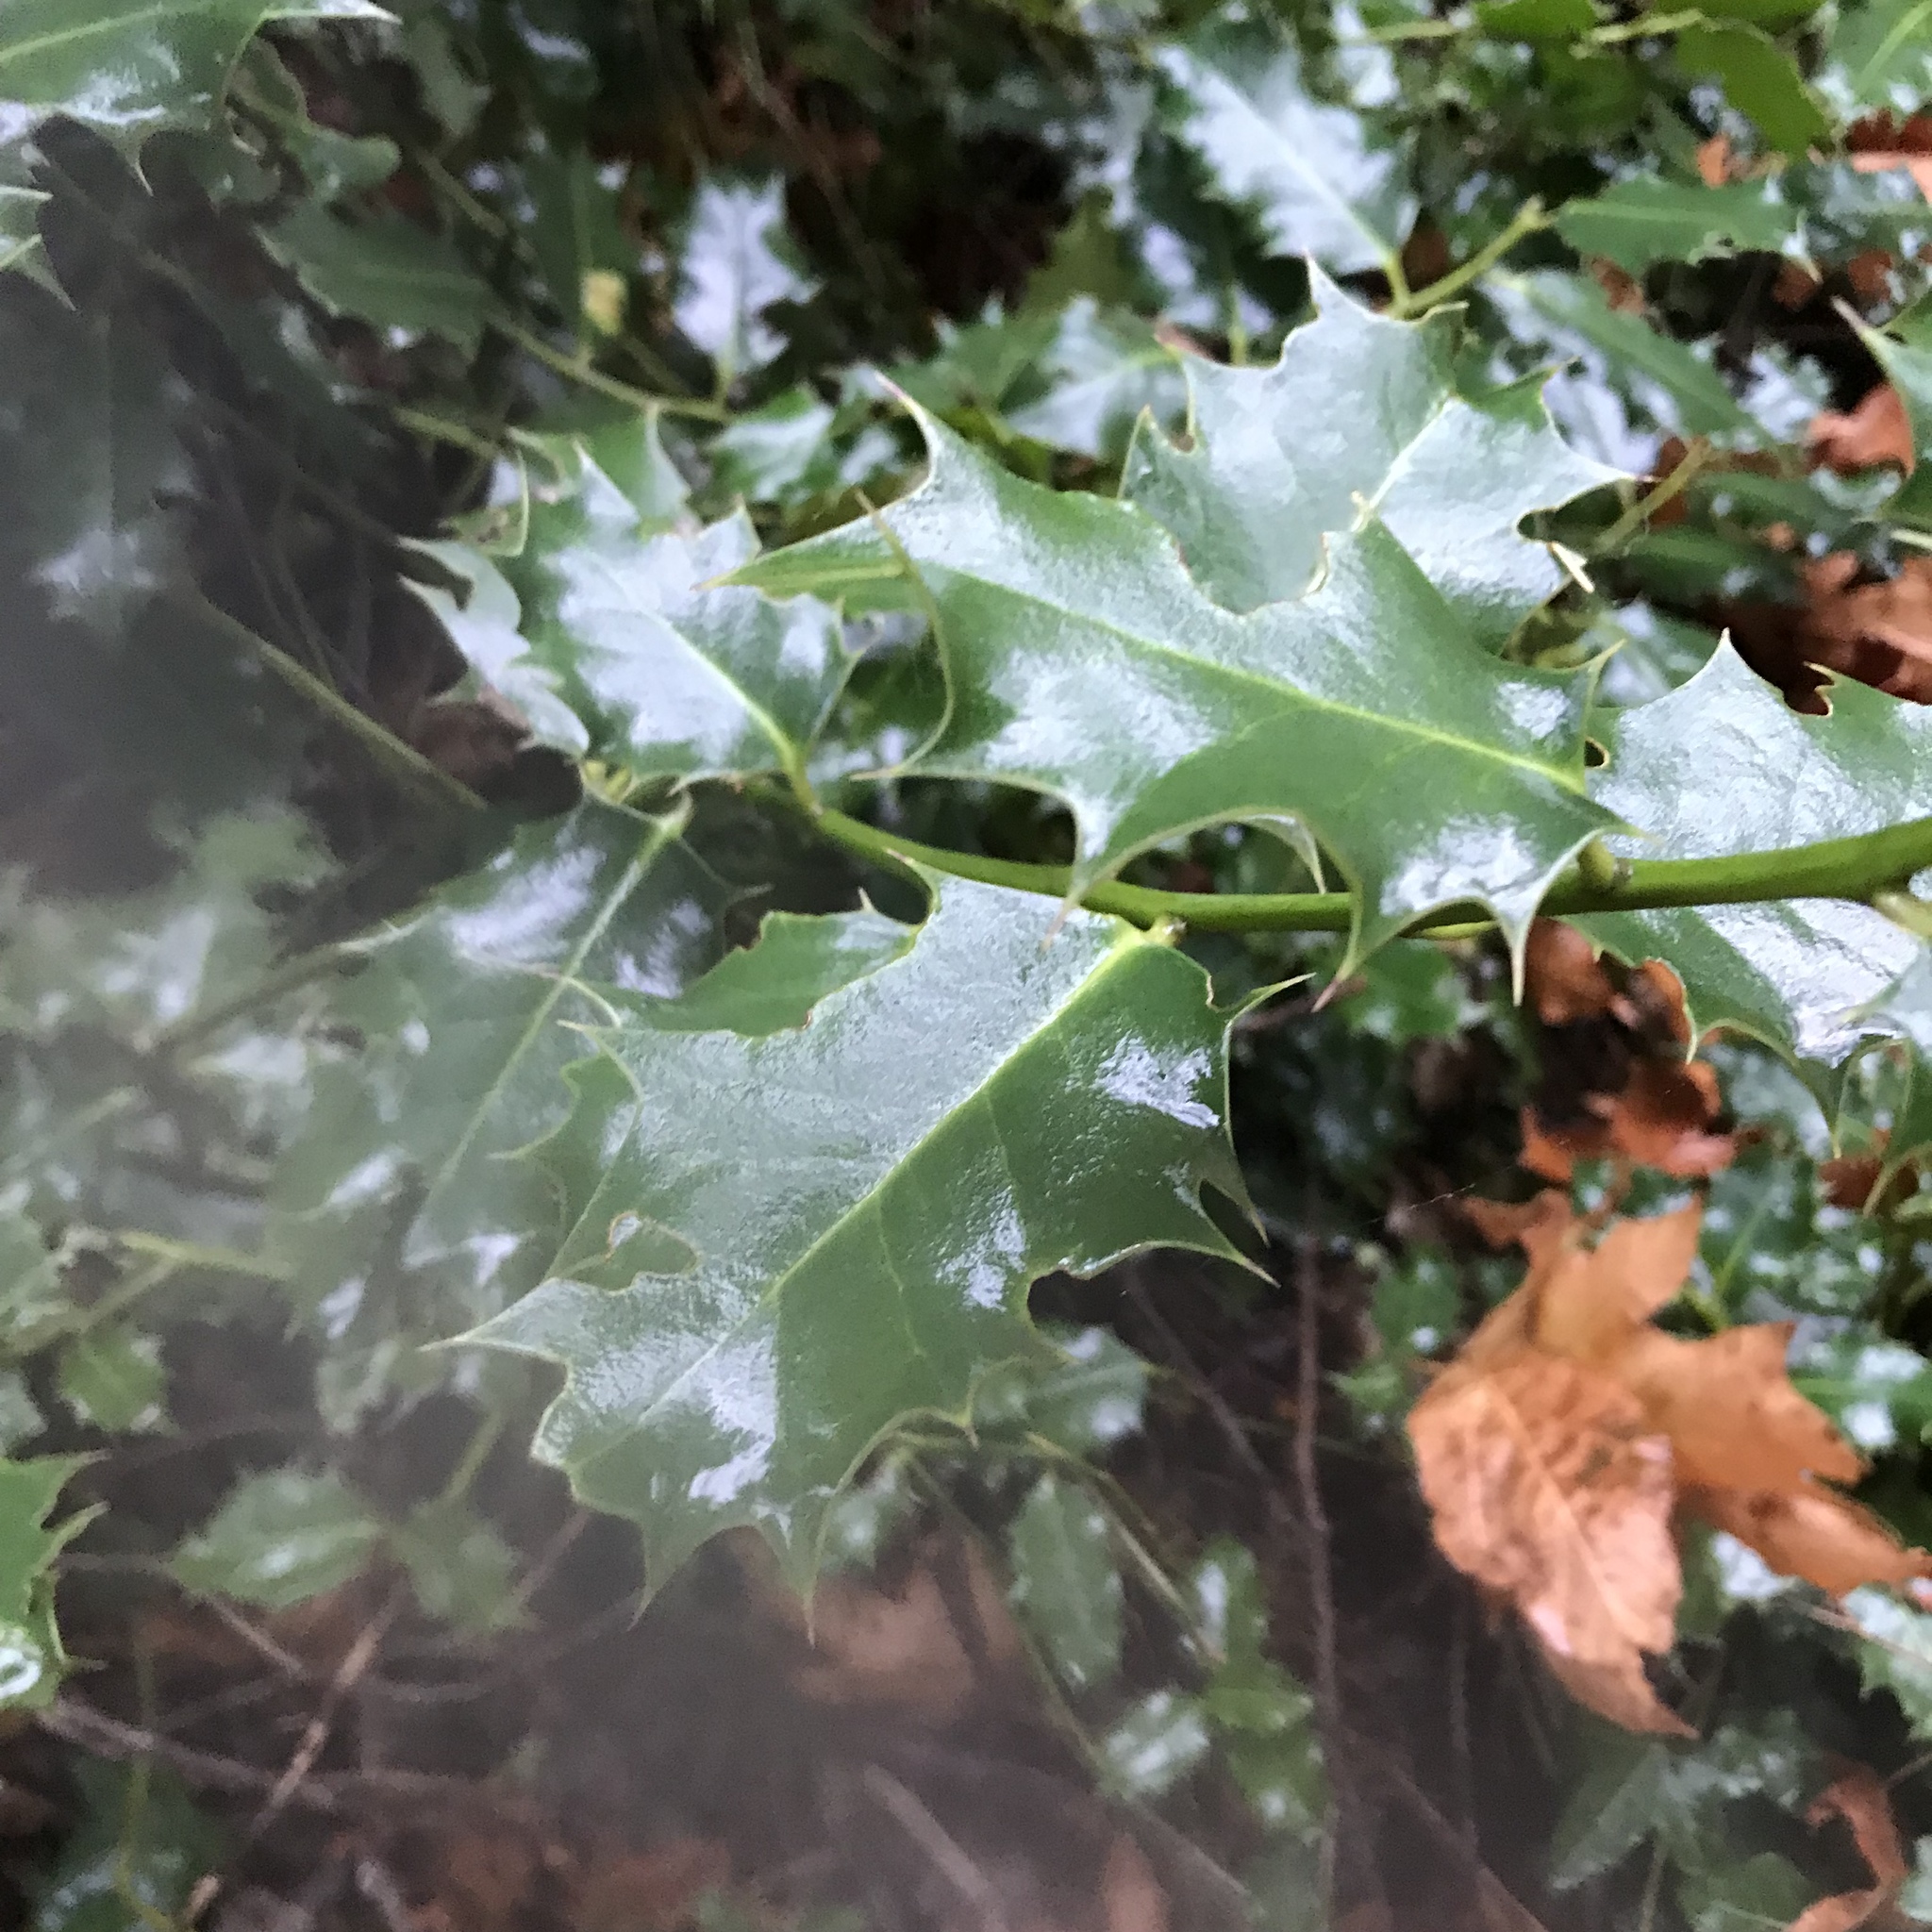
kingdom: Plantae
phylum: Tracheophyta
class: Magnoliopsida
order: Aquifoliales
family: Aquifoliaceae
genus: Ilex
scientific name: Ilex aquifolium
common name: English holly
